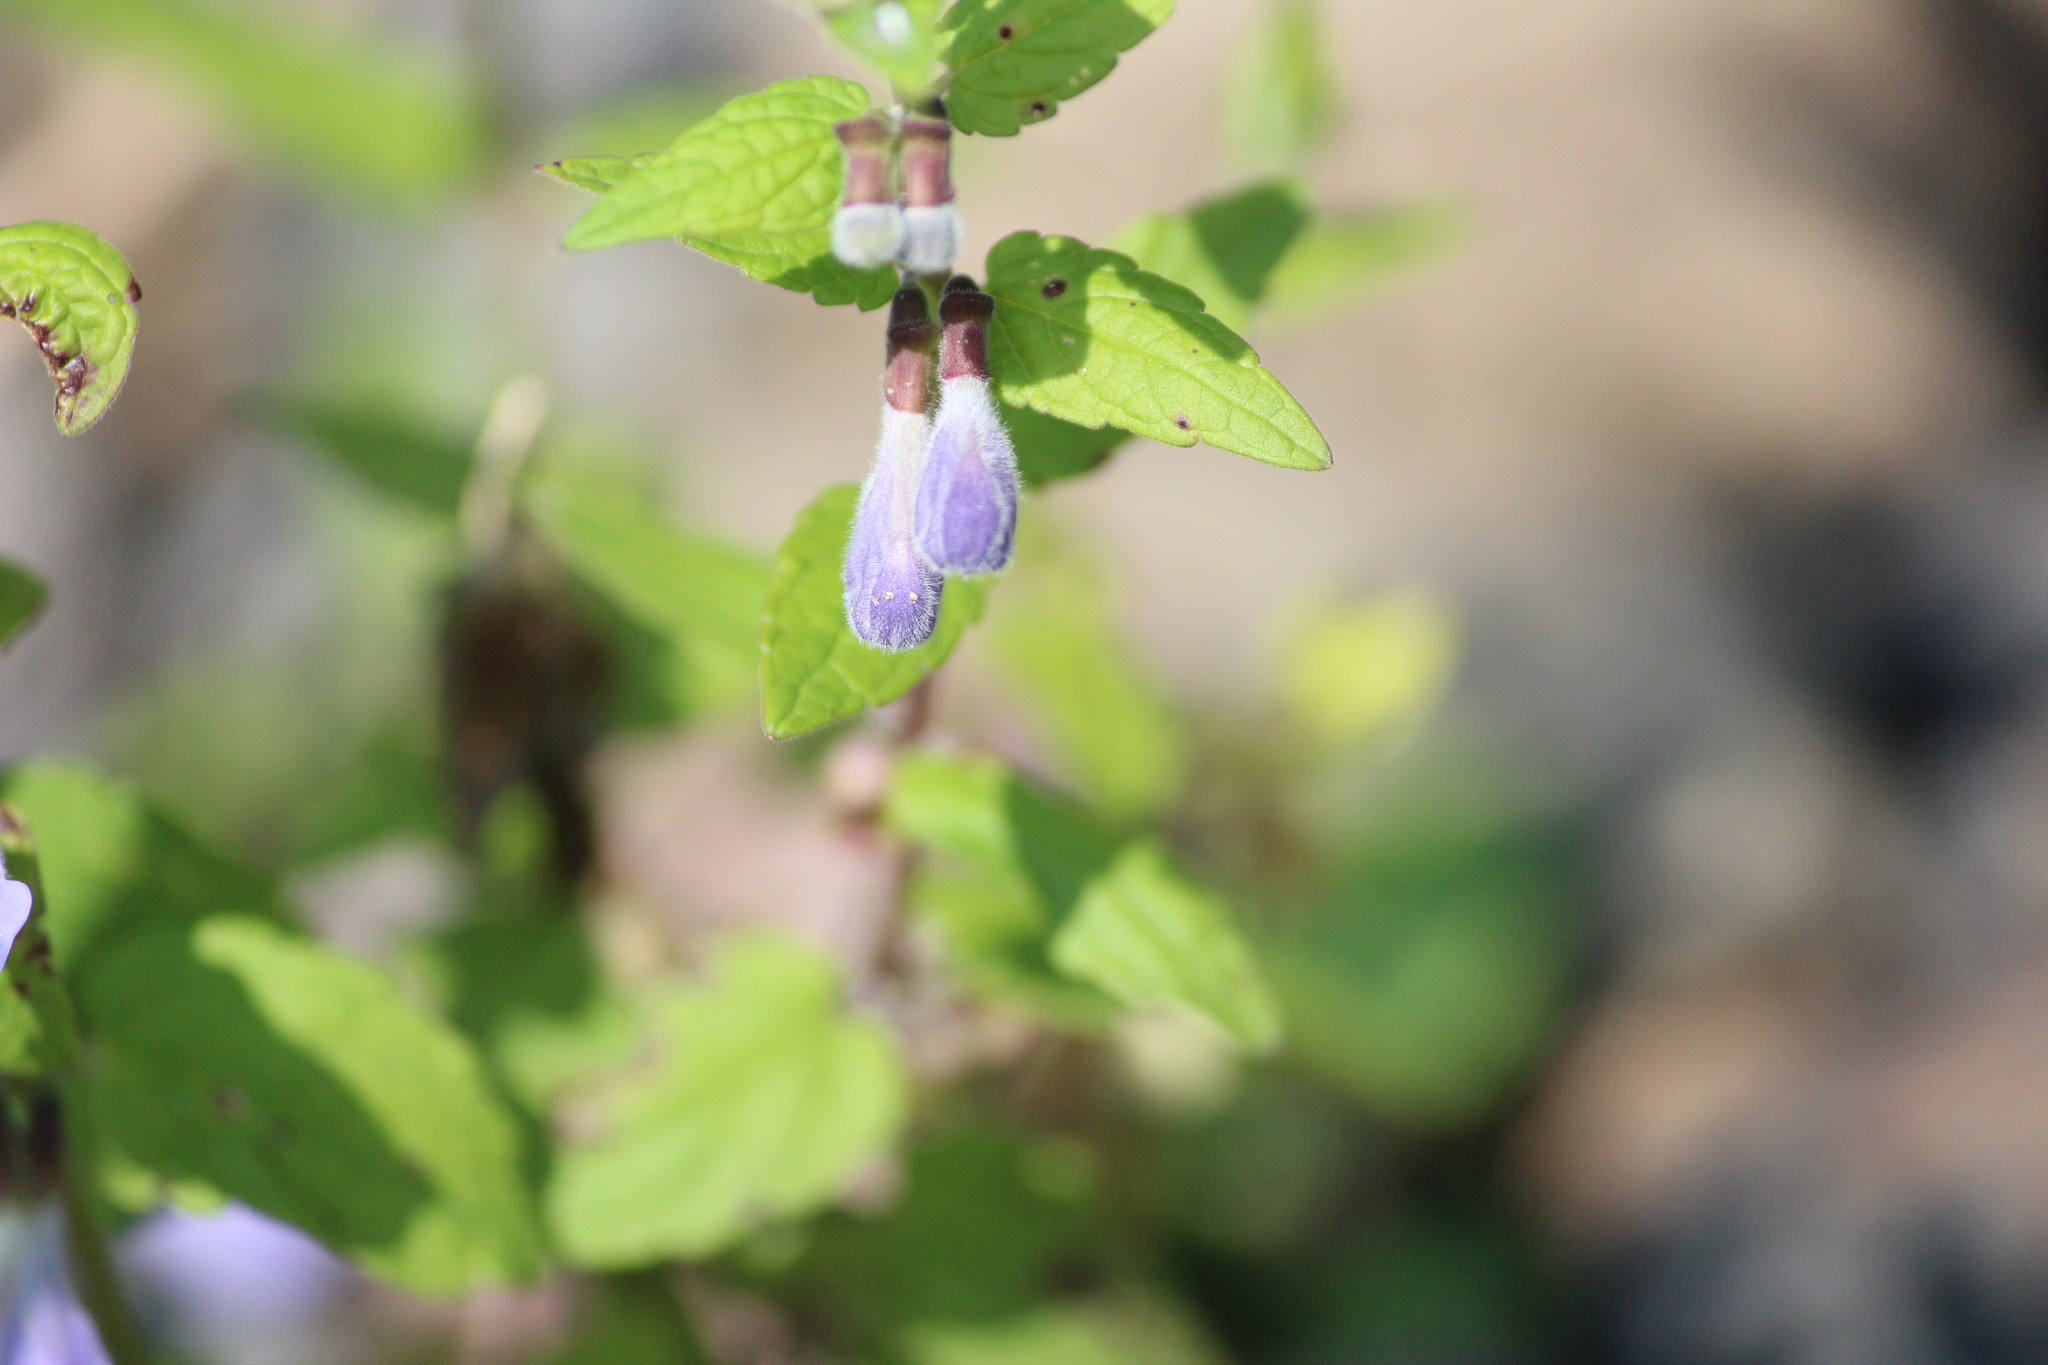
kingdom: Plantae
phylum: Tracheophyta
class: Magnoliopsida
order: Lamiales
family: Lamiaceae
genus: Scutellaria
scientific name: Scutellaria galericulata
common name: Skullcap
